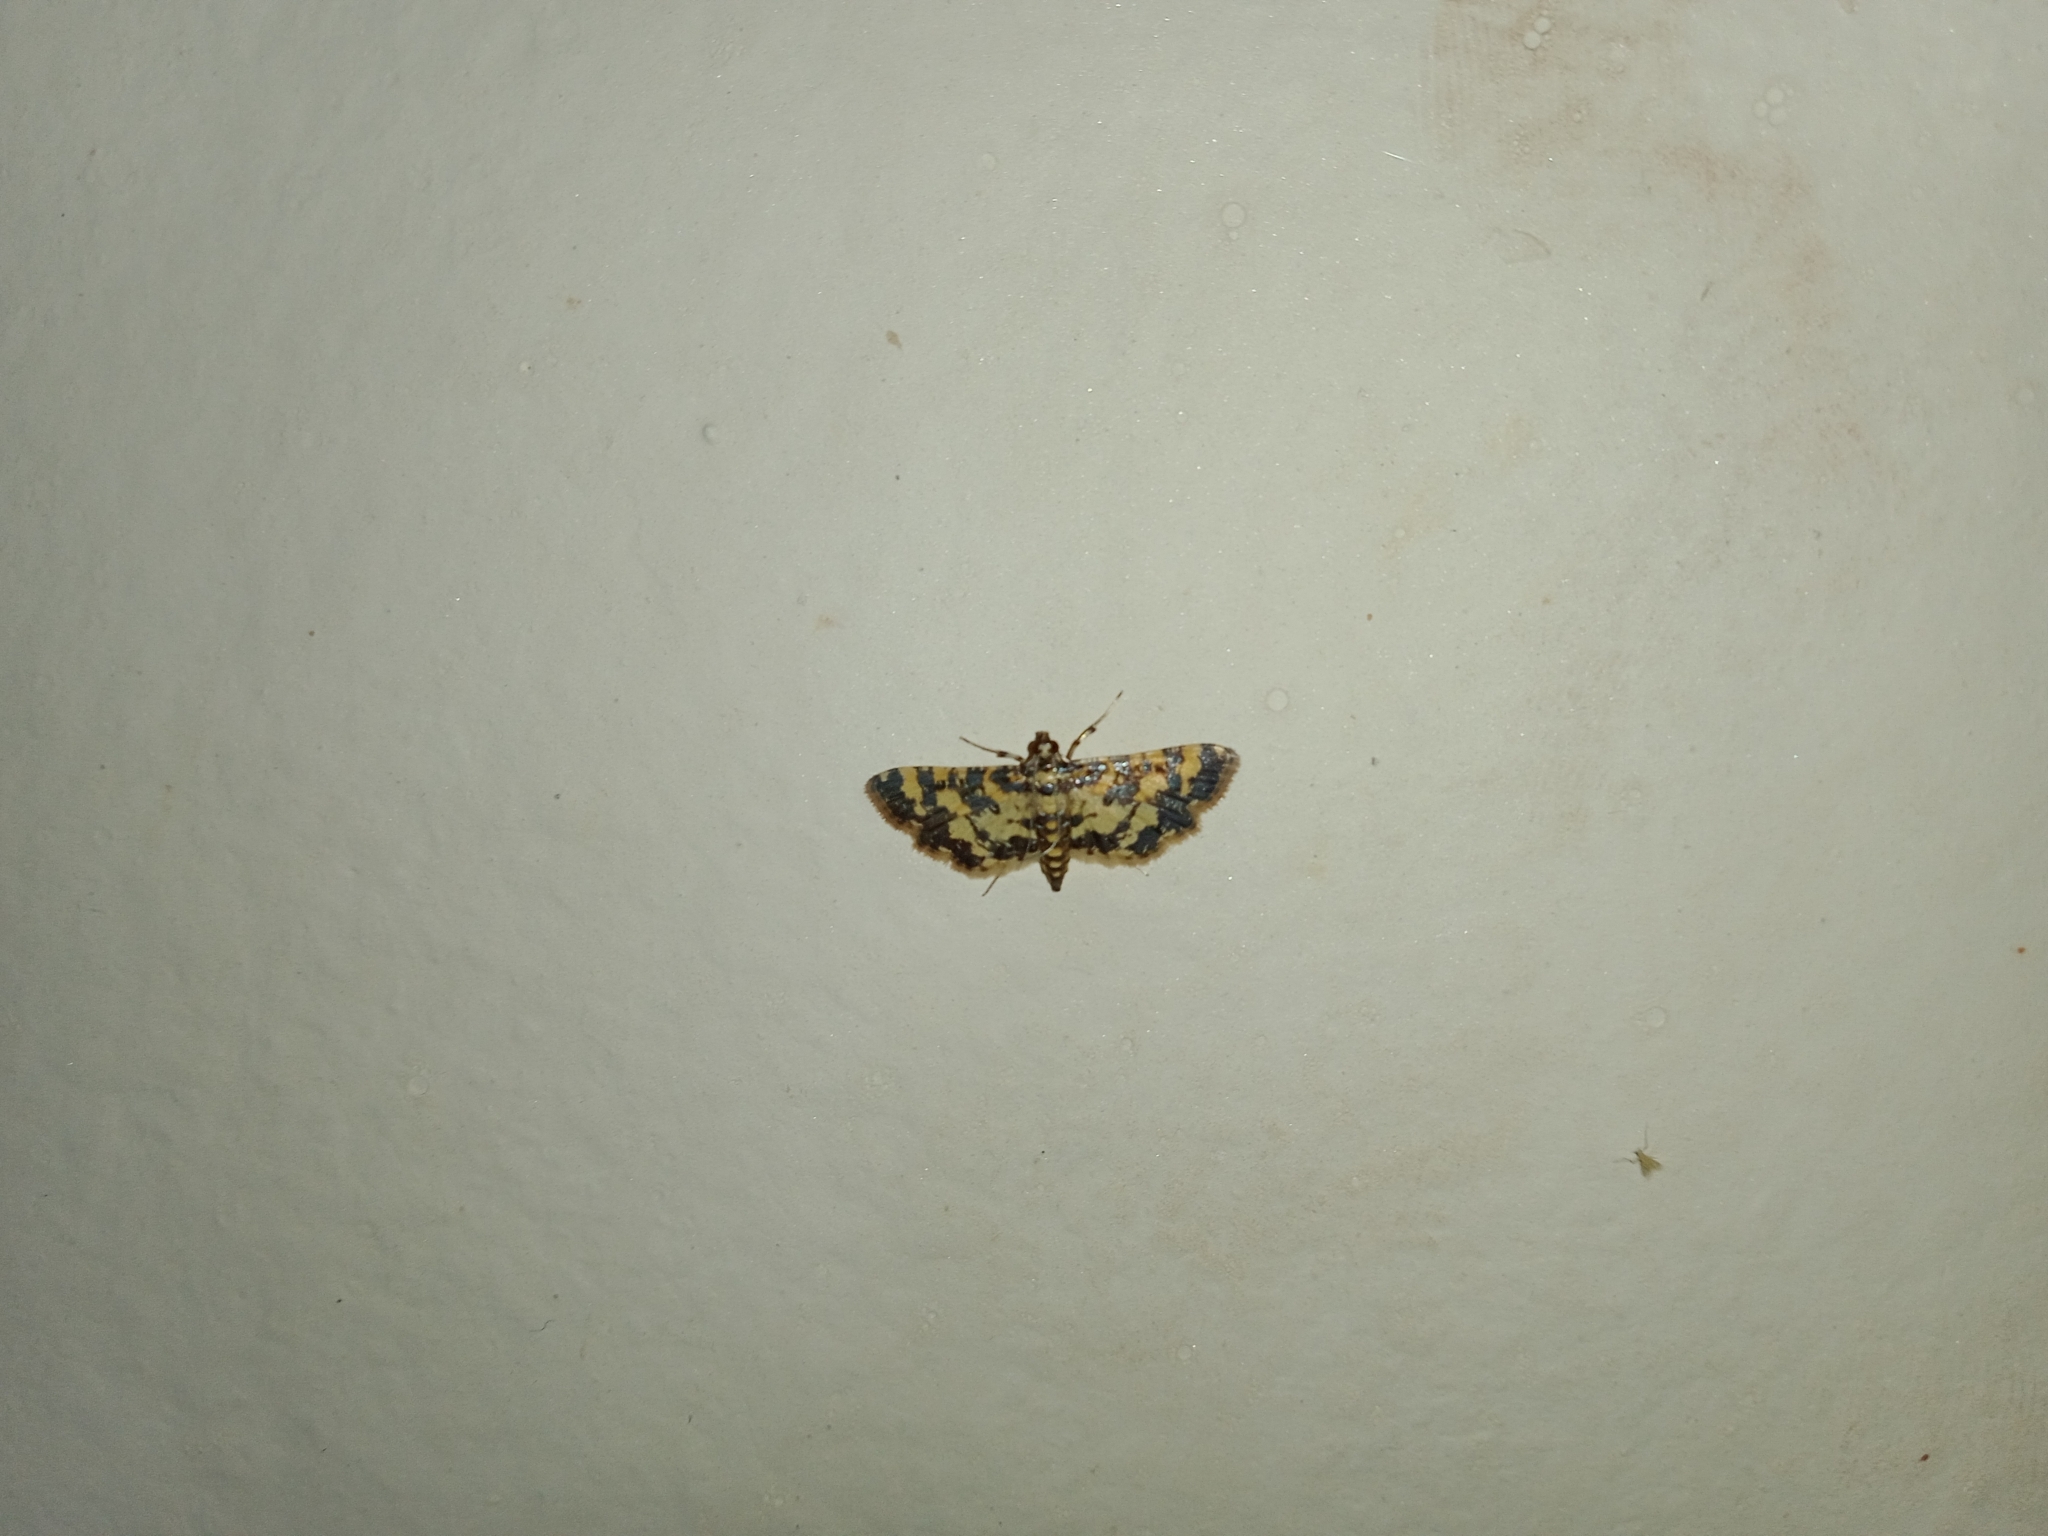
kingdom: Animalia
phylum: Arthropoda
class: Insecta
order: Lepidoptera
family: Crambidae
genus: Eurrhyparodes
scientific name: Eurrhyparodes tricoloralis
